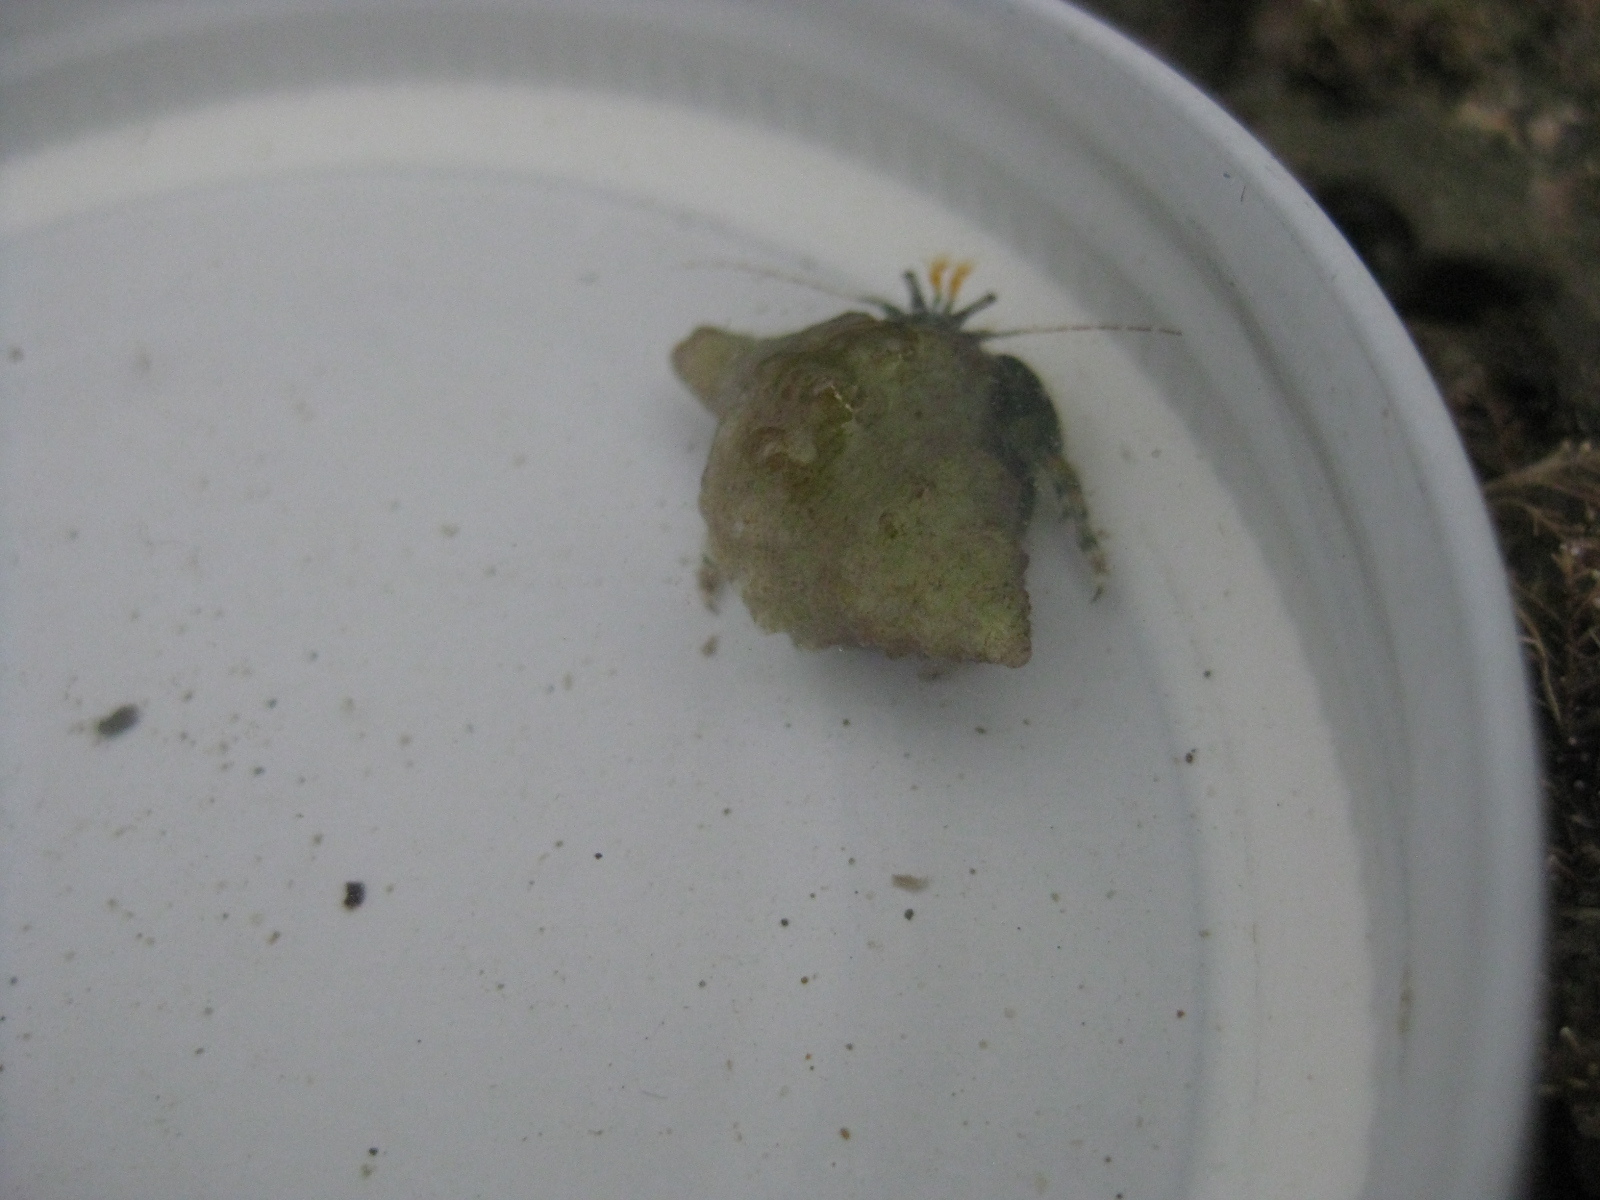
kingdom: Animalia
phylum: Arthropoda
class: Malacostraca
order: Decapoda
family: Paguridae
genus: Pagurus
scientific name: Pagurus traversi
